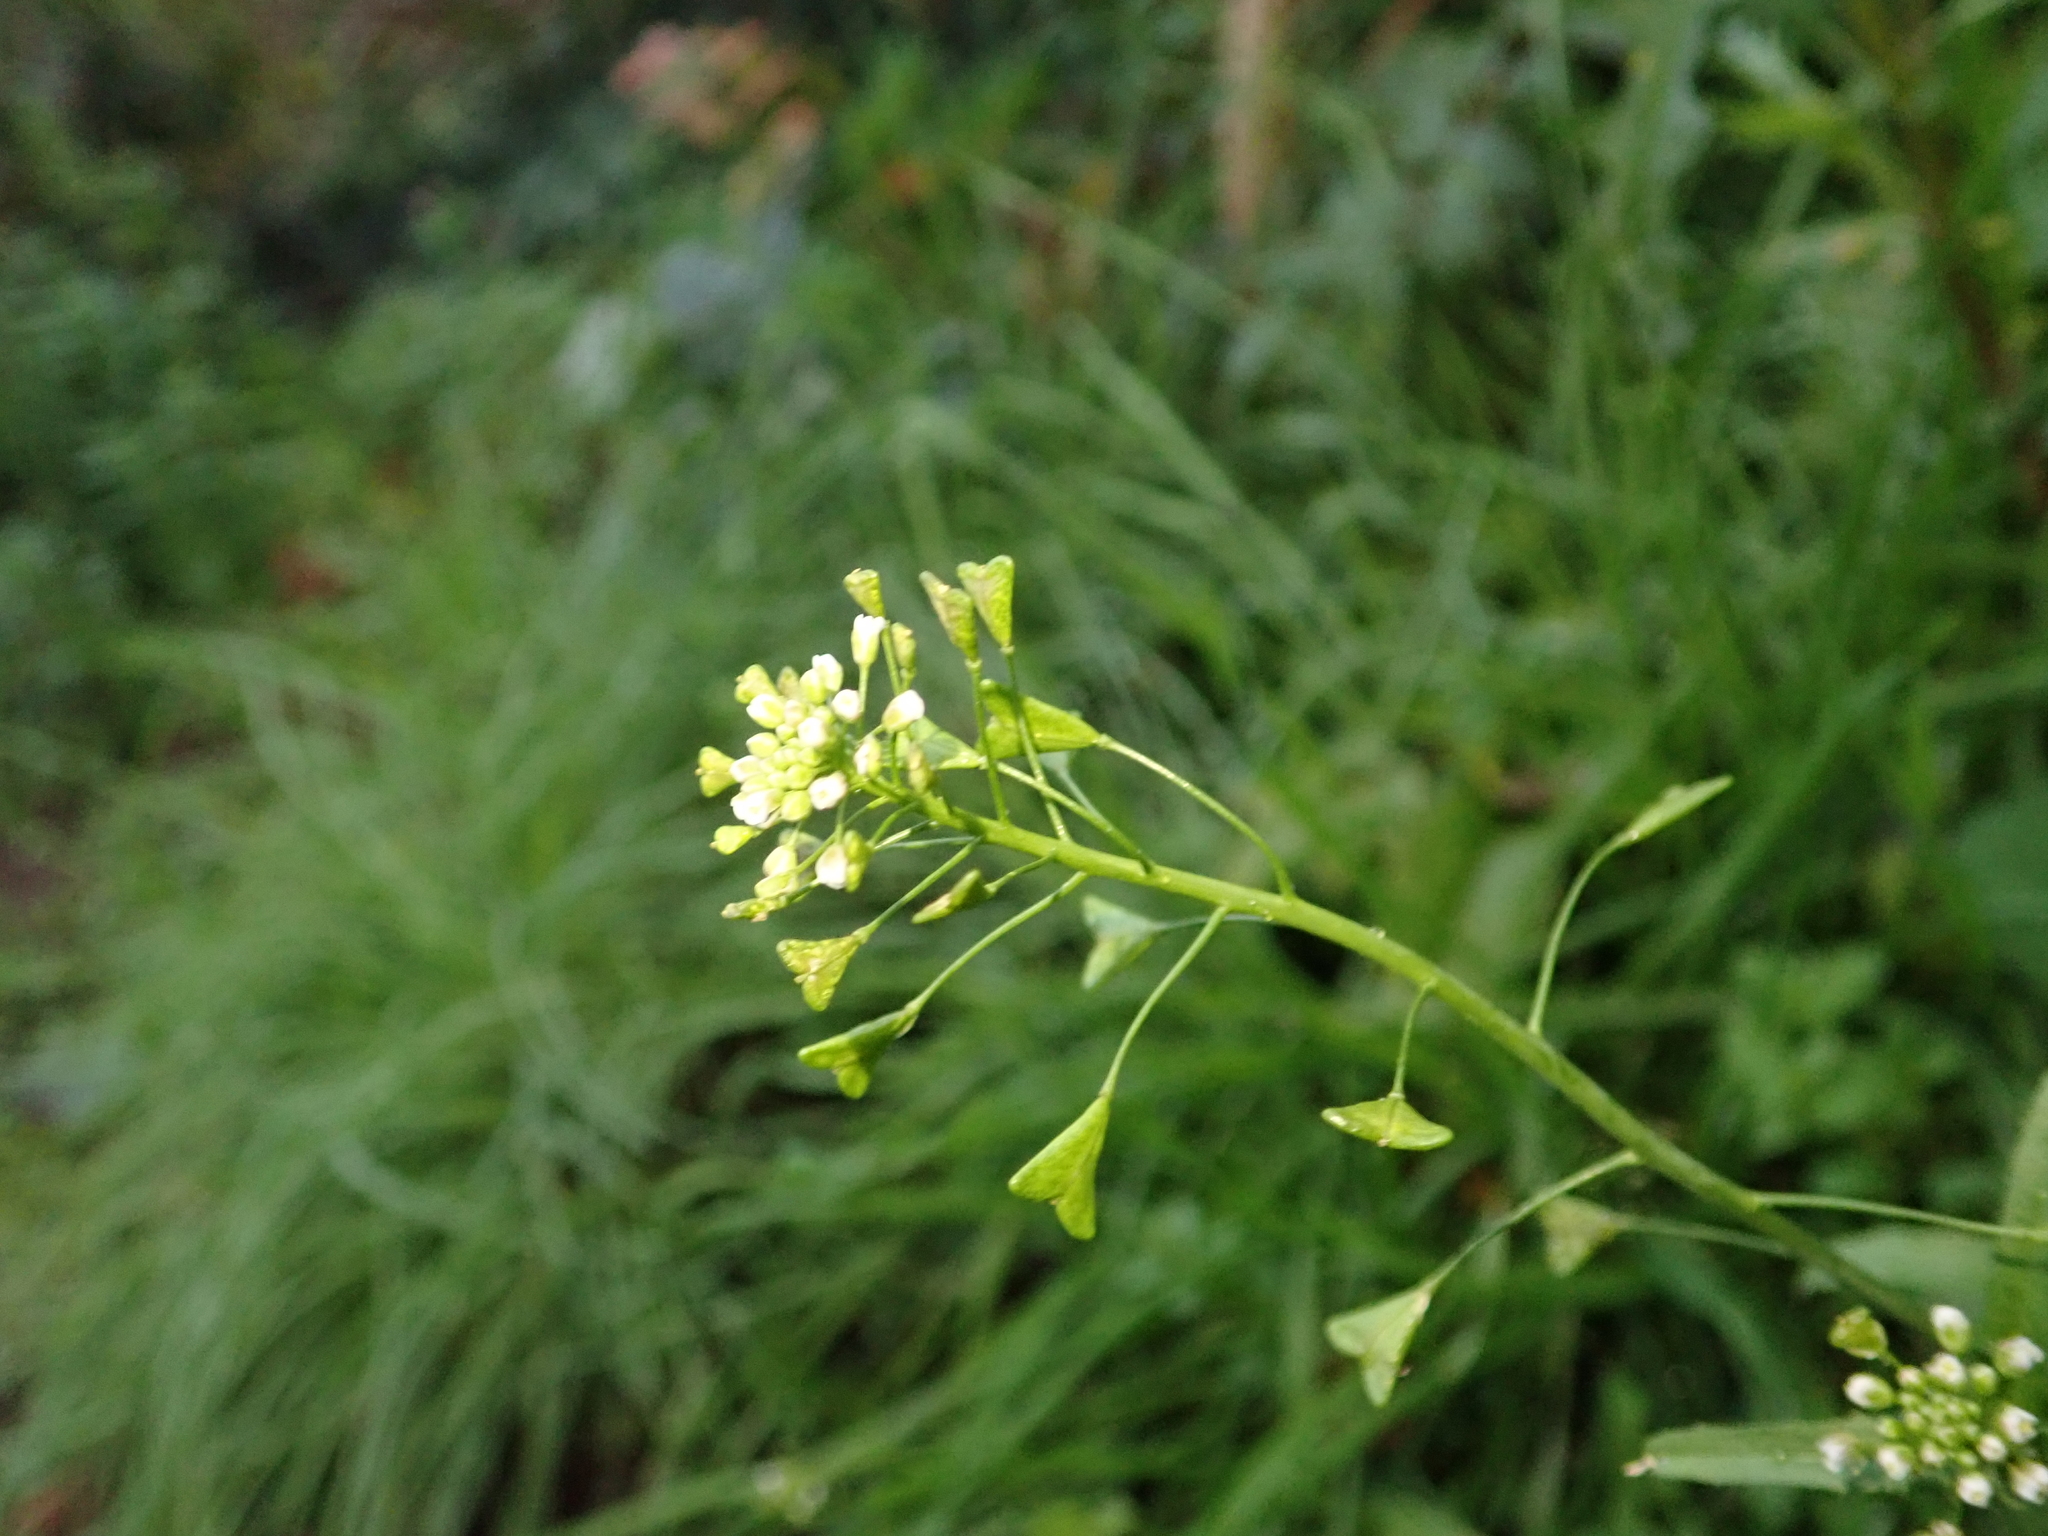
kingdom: Plantae
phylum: Tracheophyta
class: Magnoliopsida
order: Brassicales
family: Brassicaceae
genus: Capsella
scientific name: Capsella bursa-pastoris
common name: Shepherd's purse
